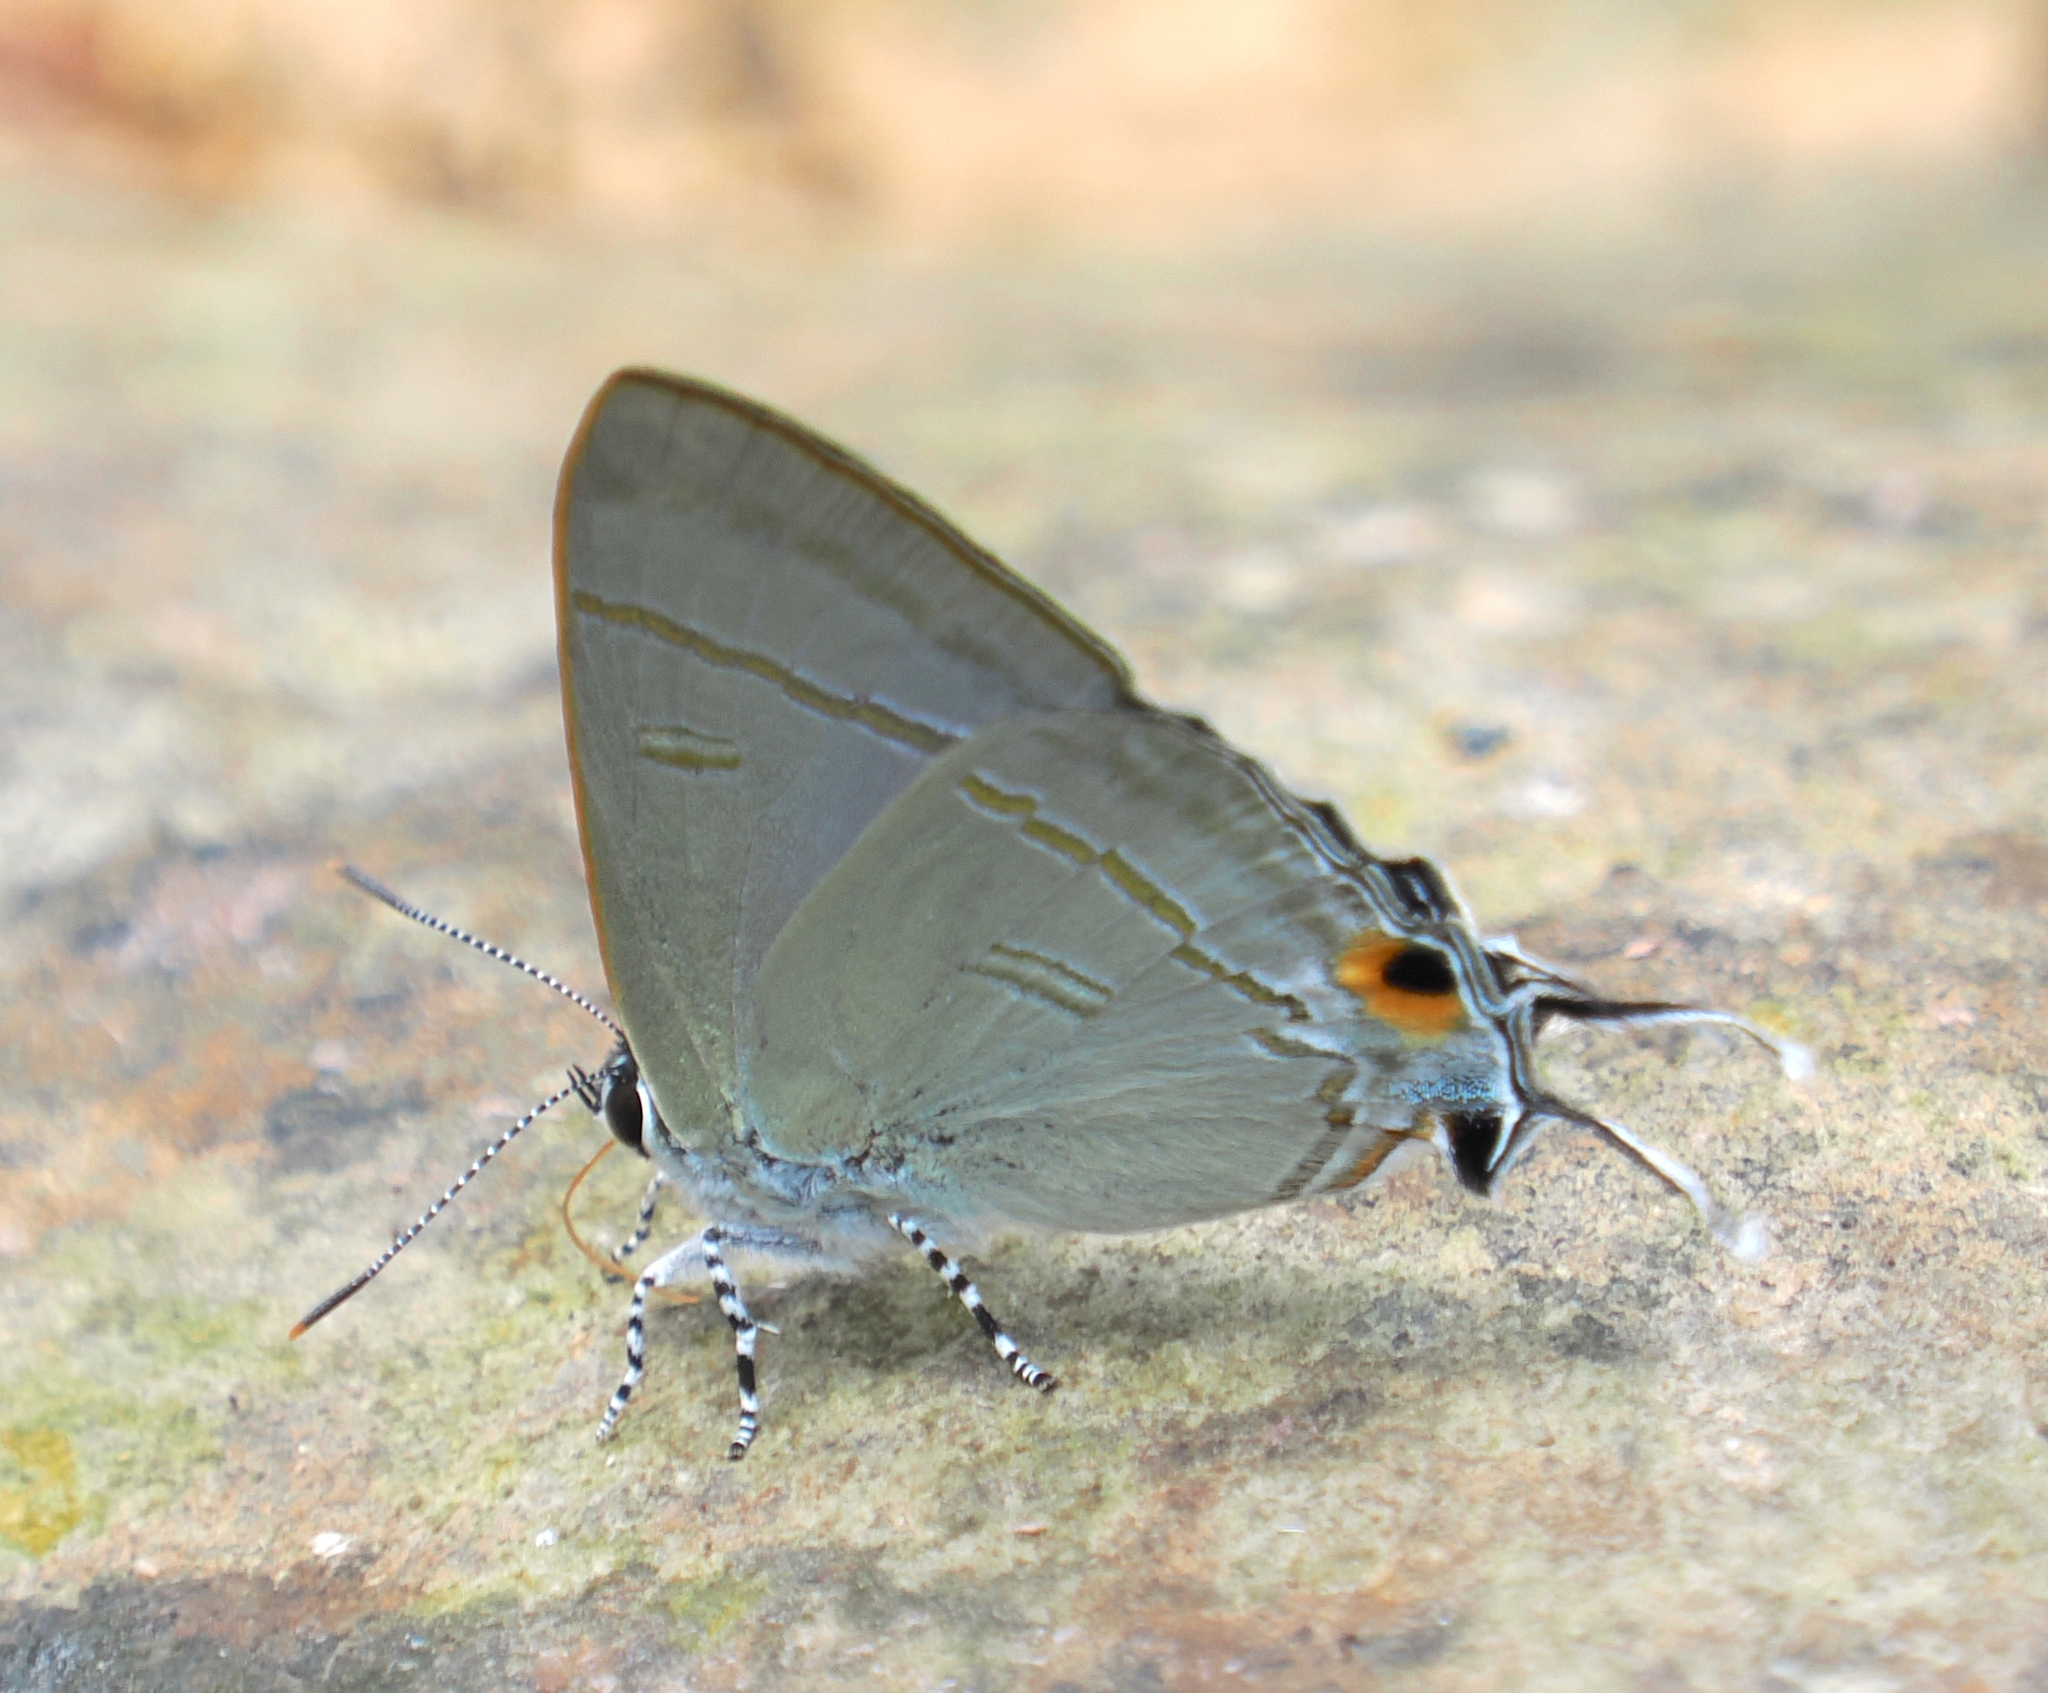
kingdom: Animalia
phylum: Arthropoda
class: Insecta
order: Lepidoptera
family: Lycaenidae
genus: Hypolycaena
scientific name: Hypolycaena erylus
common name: Common tit
